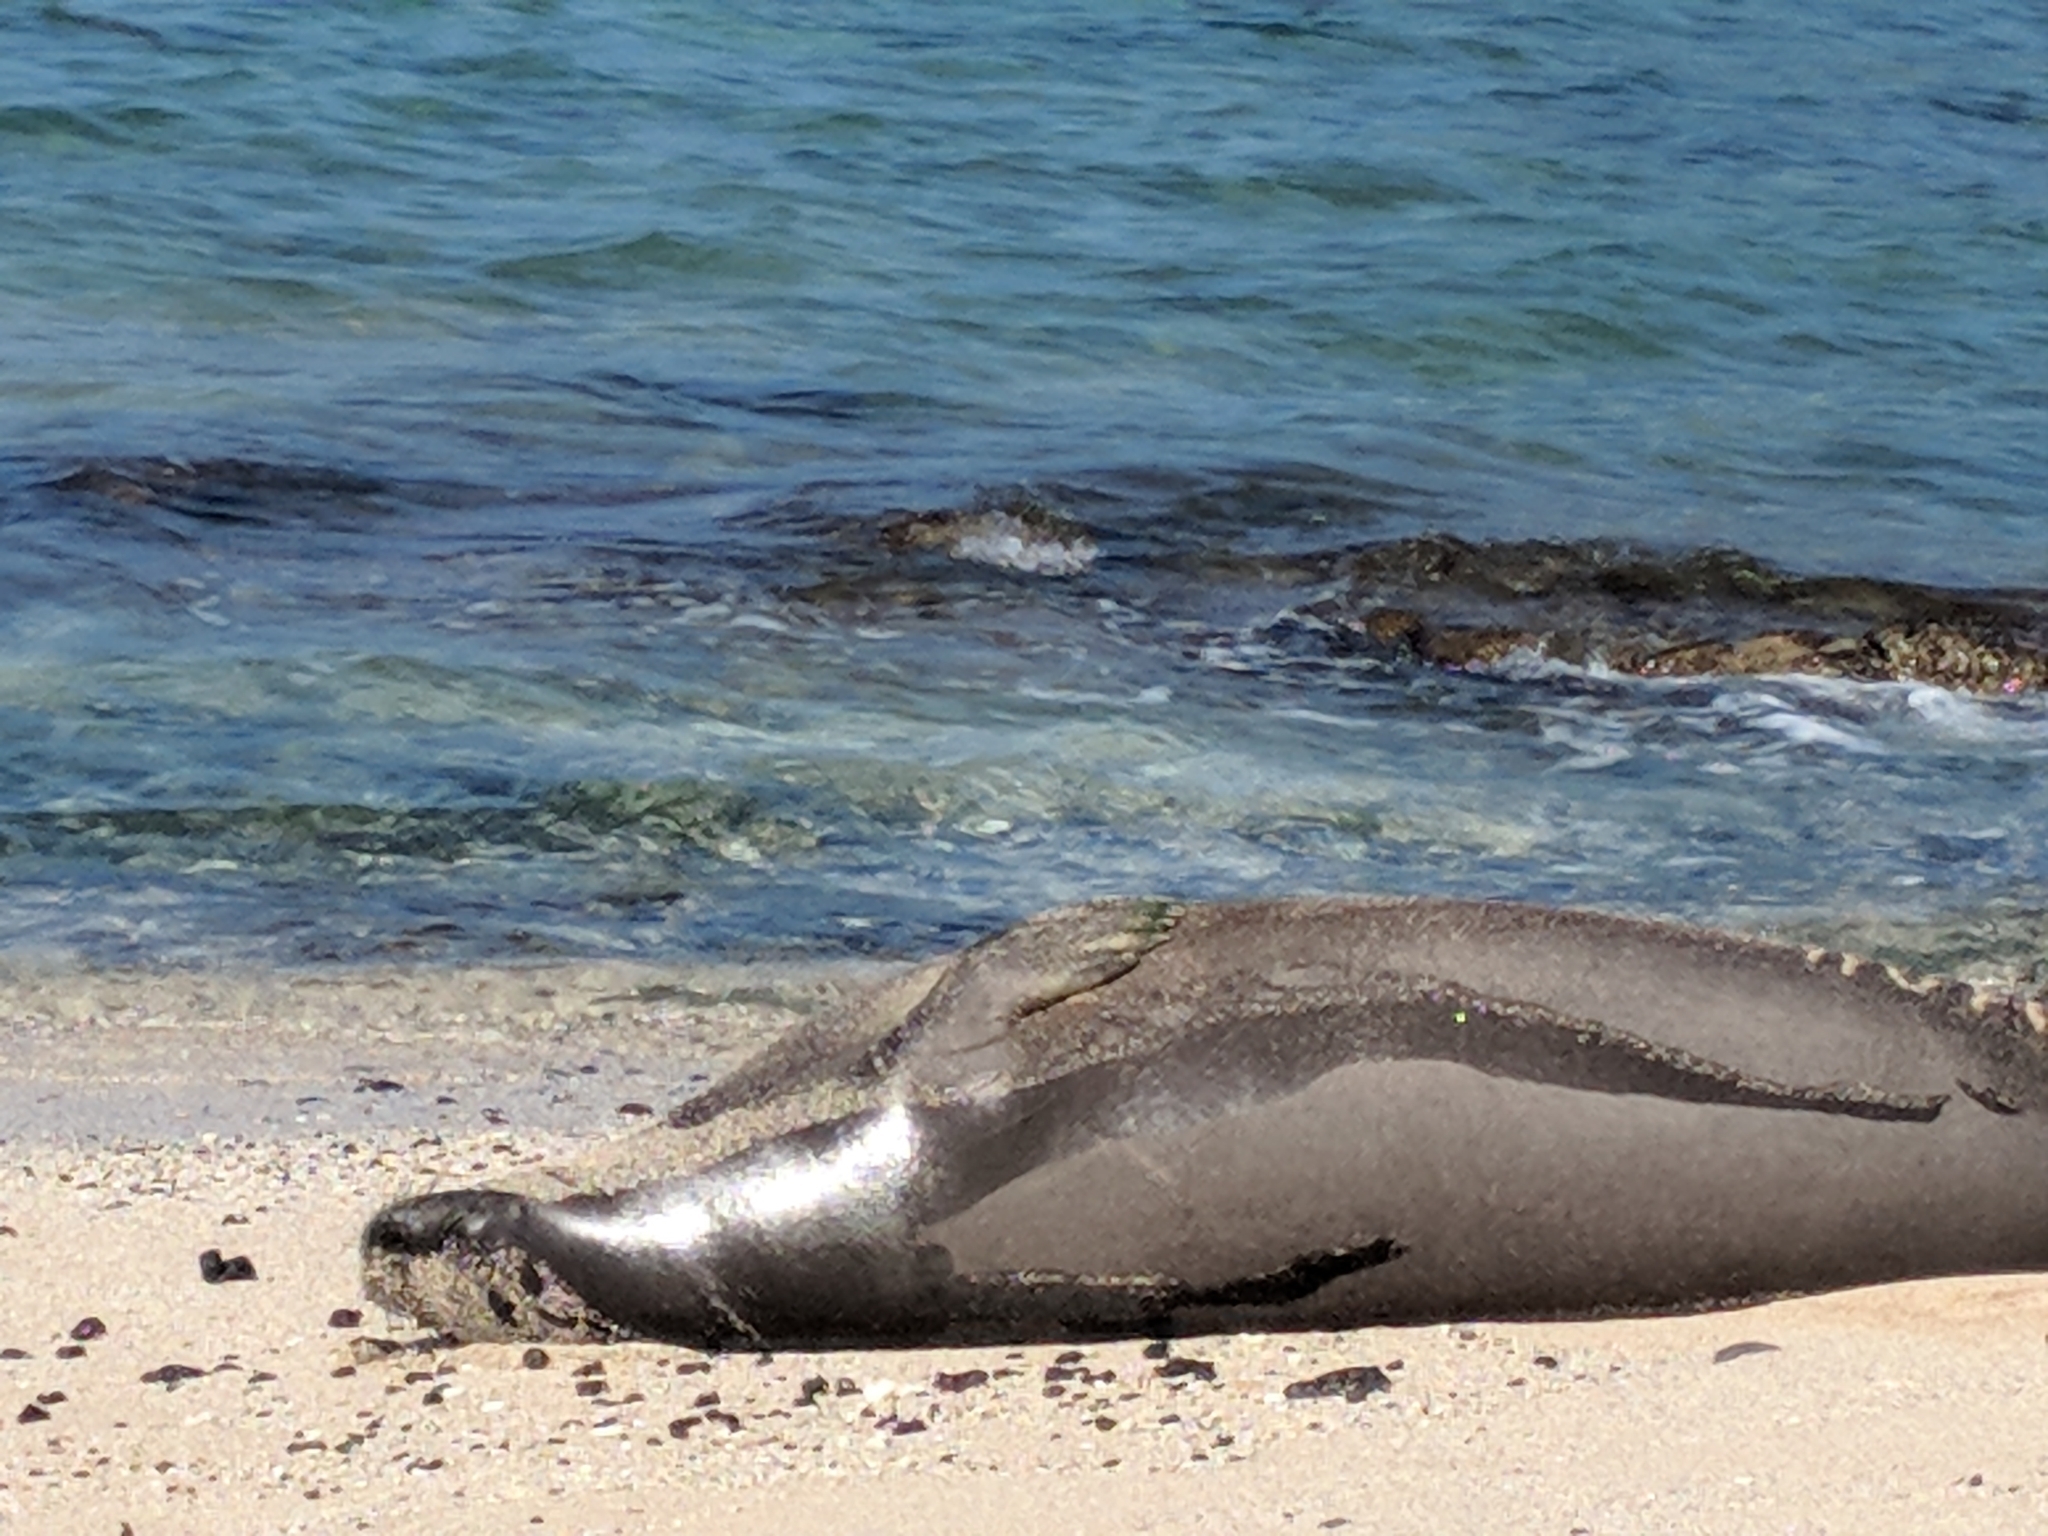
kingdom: Animalia
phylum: Chordata
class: Mammalia
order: Carnivora
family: Phocidae
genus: Neomonachus
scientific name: Neomonachus schauinslandi
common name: Hawaiian monk seal
